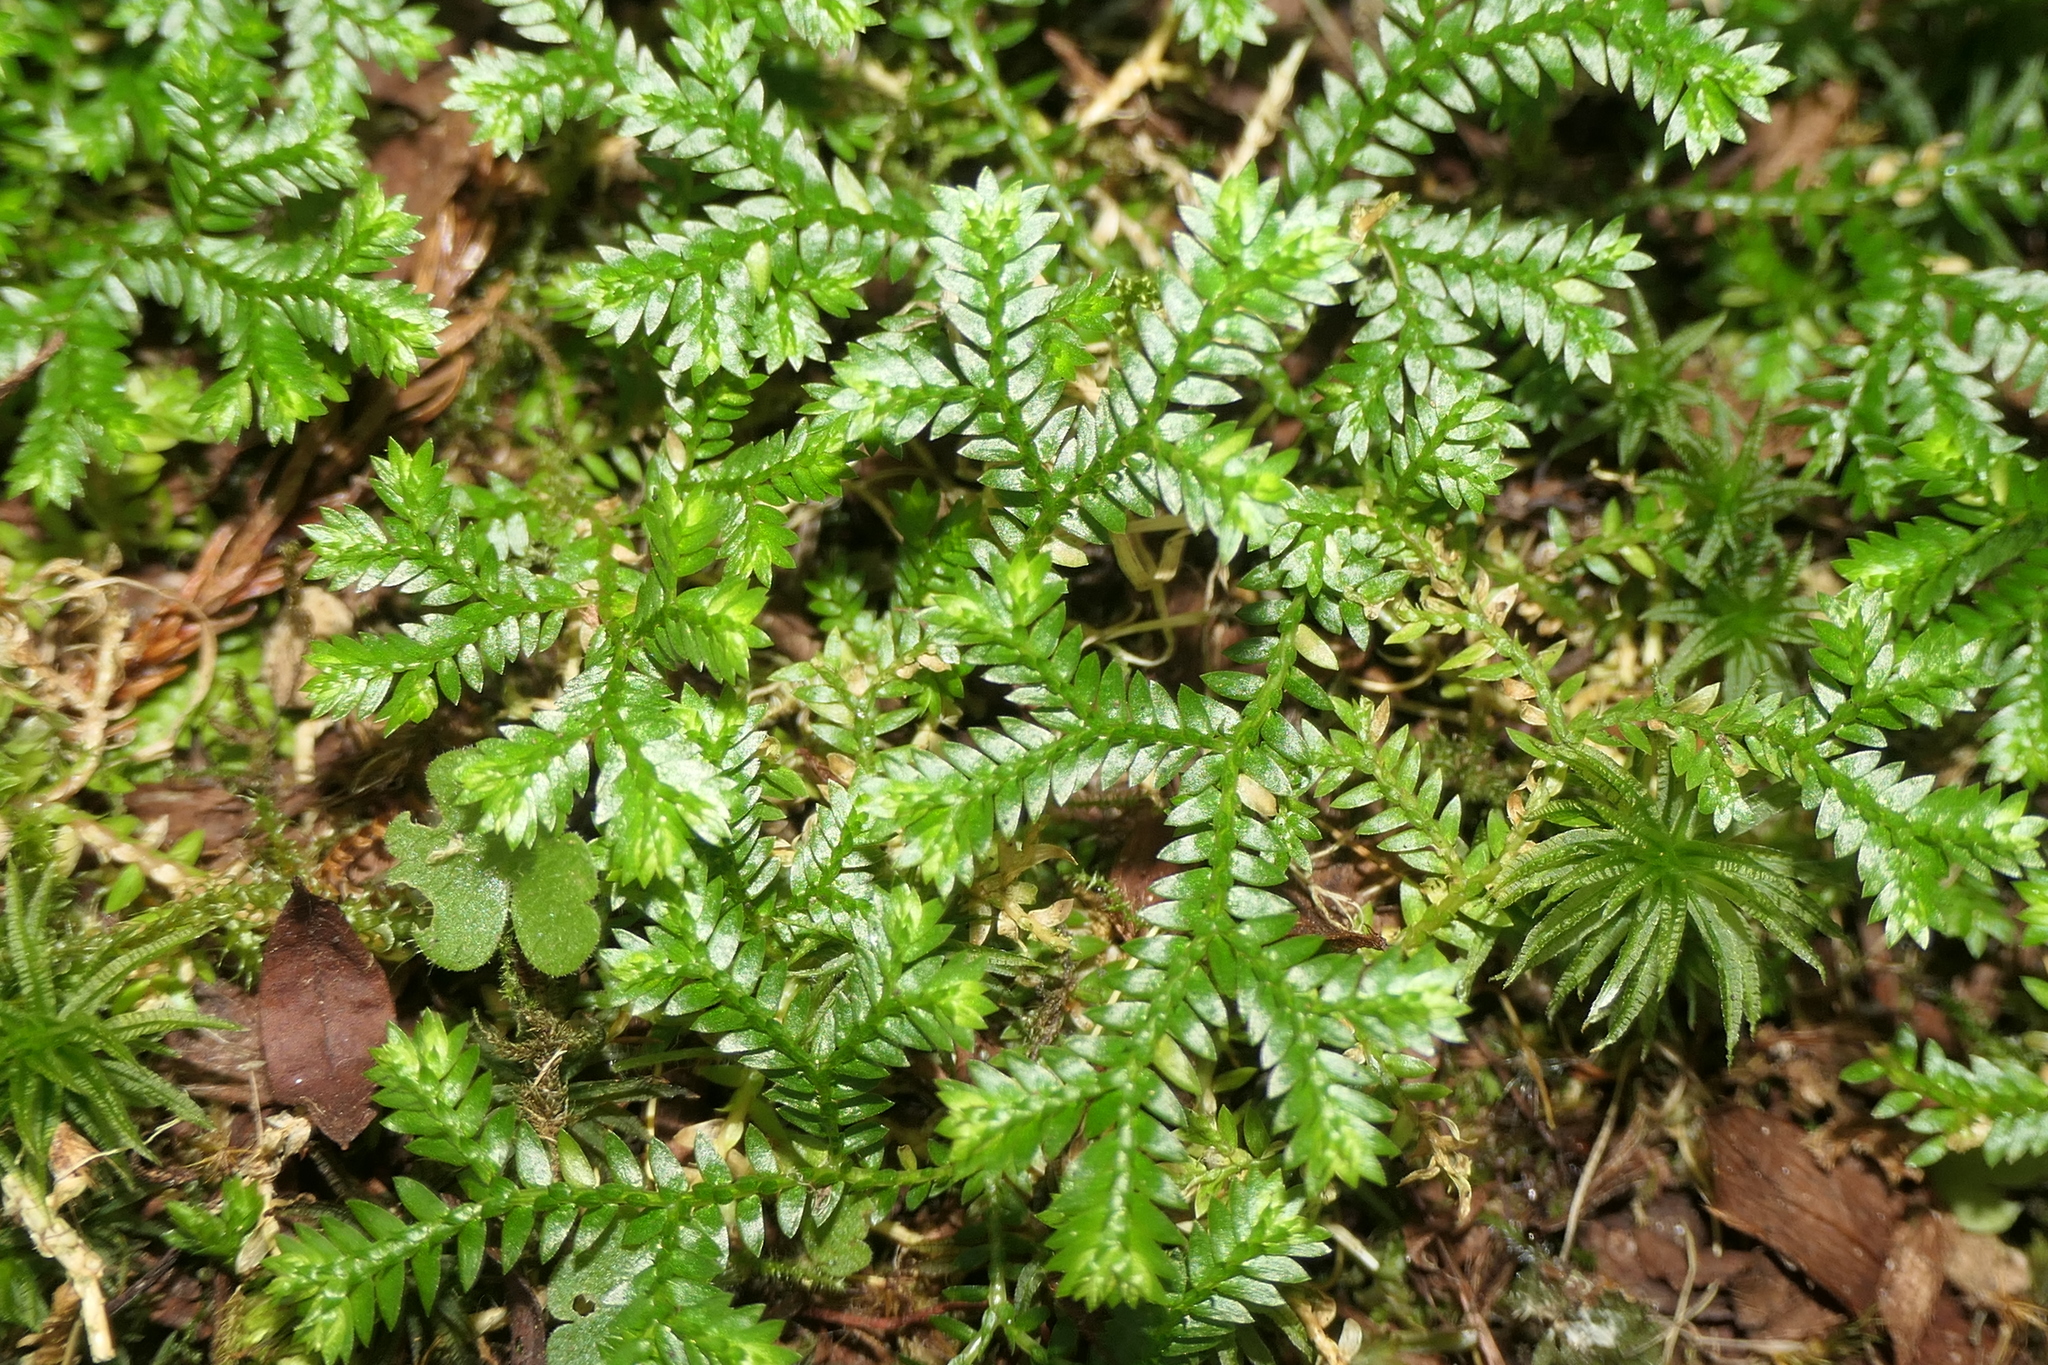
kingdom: Plantae
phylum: Tracheophyta
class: Lycopodiopsida
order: Selaginellales
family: Selaginellaceae
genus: Selaginella
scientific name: Selaginella kraussiana
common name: Krauss' spikemoss
